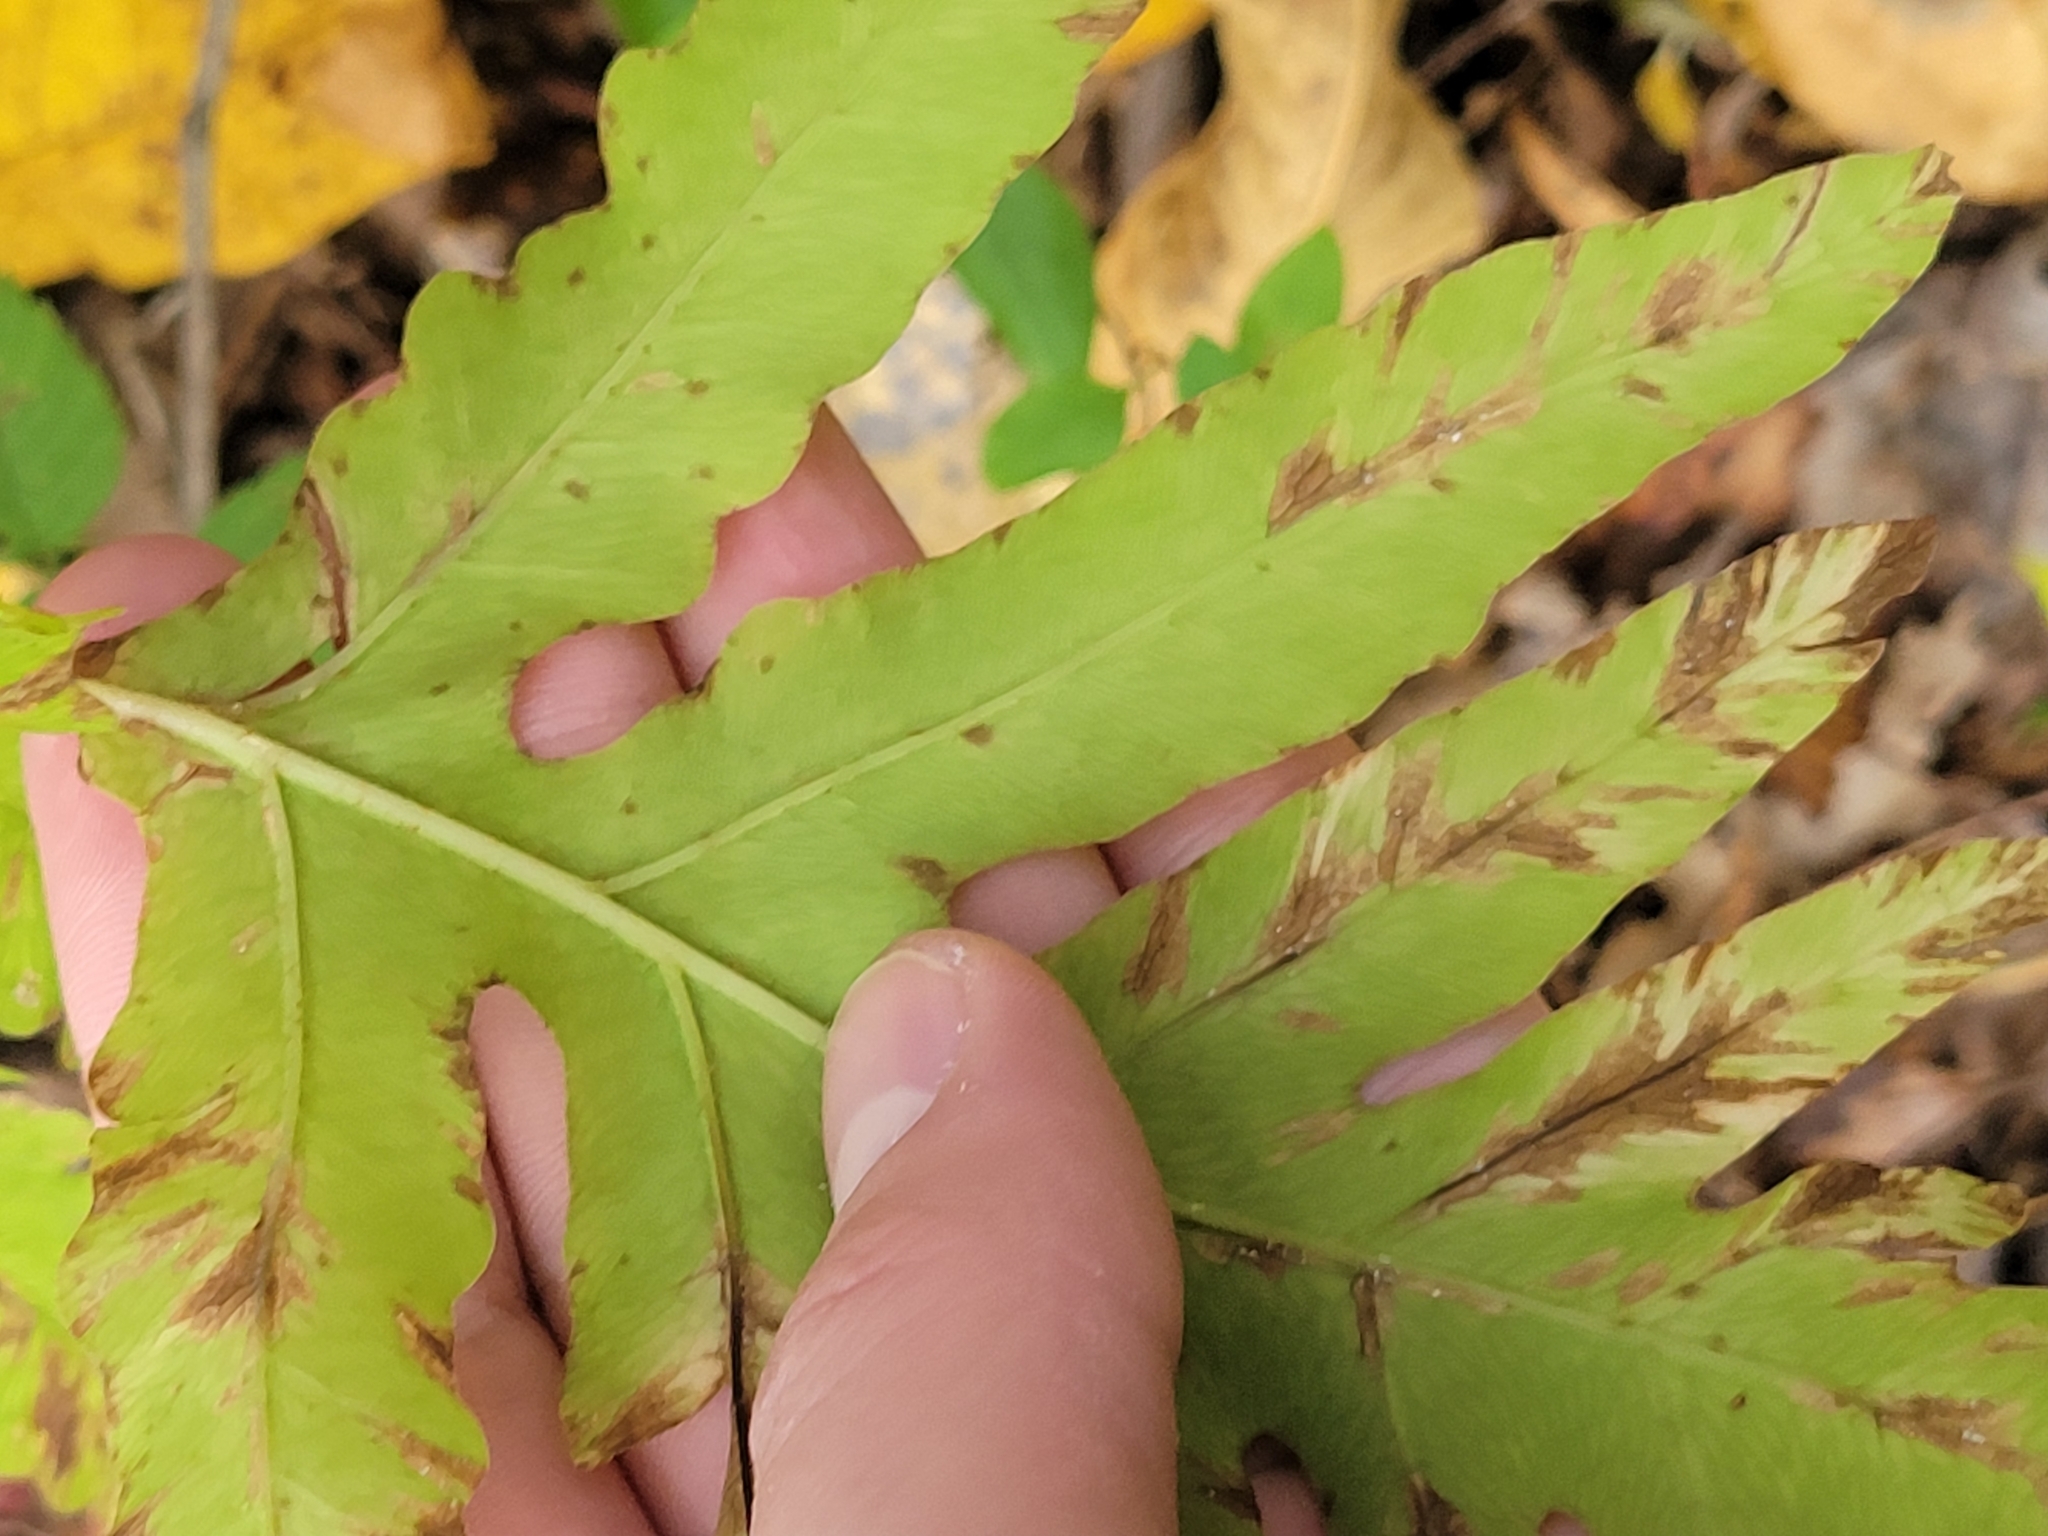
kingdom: Plantae
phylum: Tracheophyta
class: Polypodiopsida
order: Polypodiales
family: Onocleaceae
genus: Onoclea
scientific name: Onoclea sensibilis
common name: Sensitive fern
